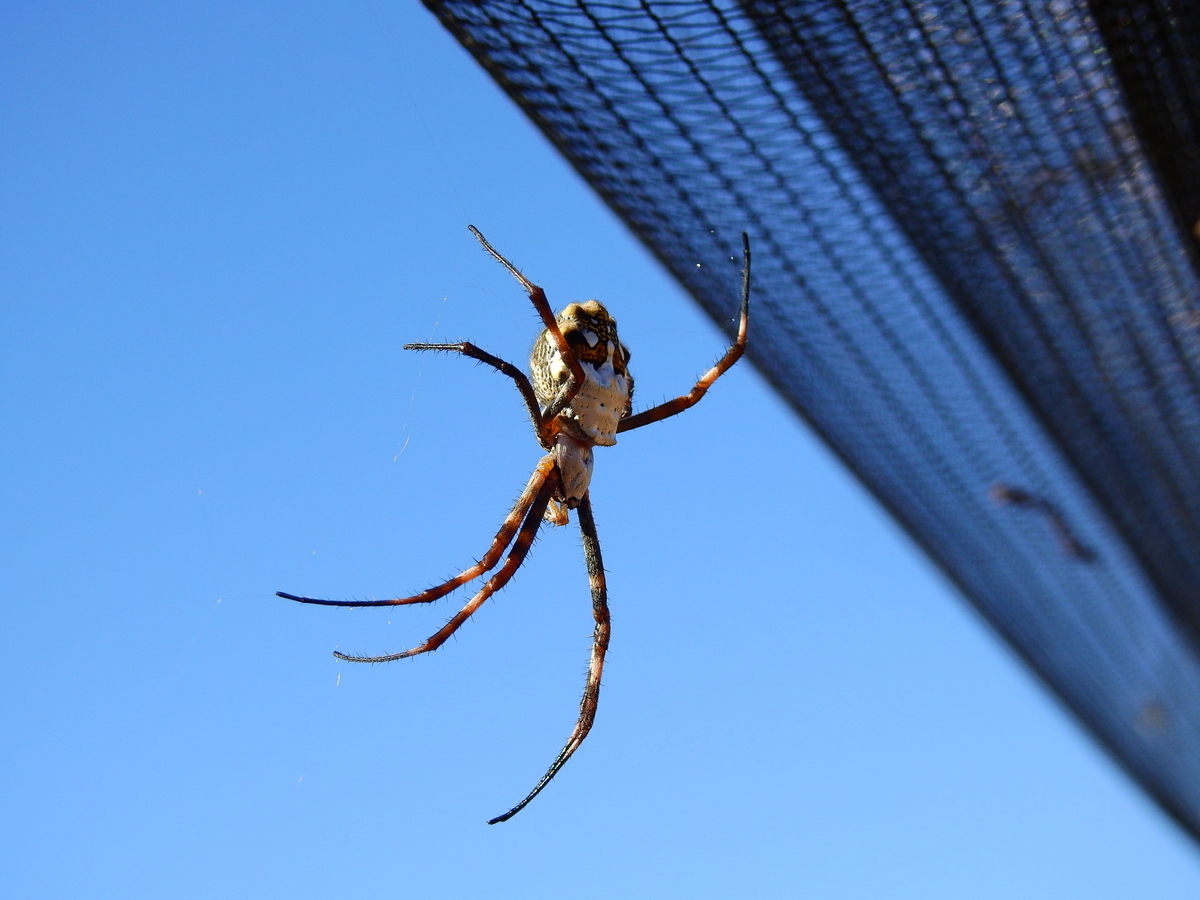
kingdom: Animalia
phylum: Arthropoda
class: Arachnida
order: Araneae
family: Araneidae
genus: Argiope
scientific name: Argiope argentata
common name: Orb weavers
